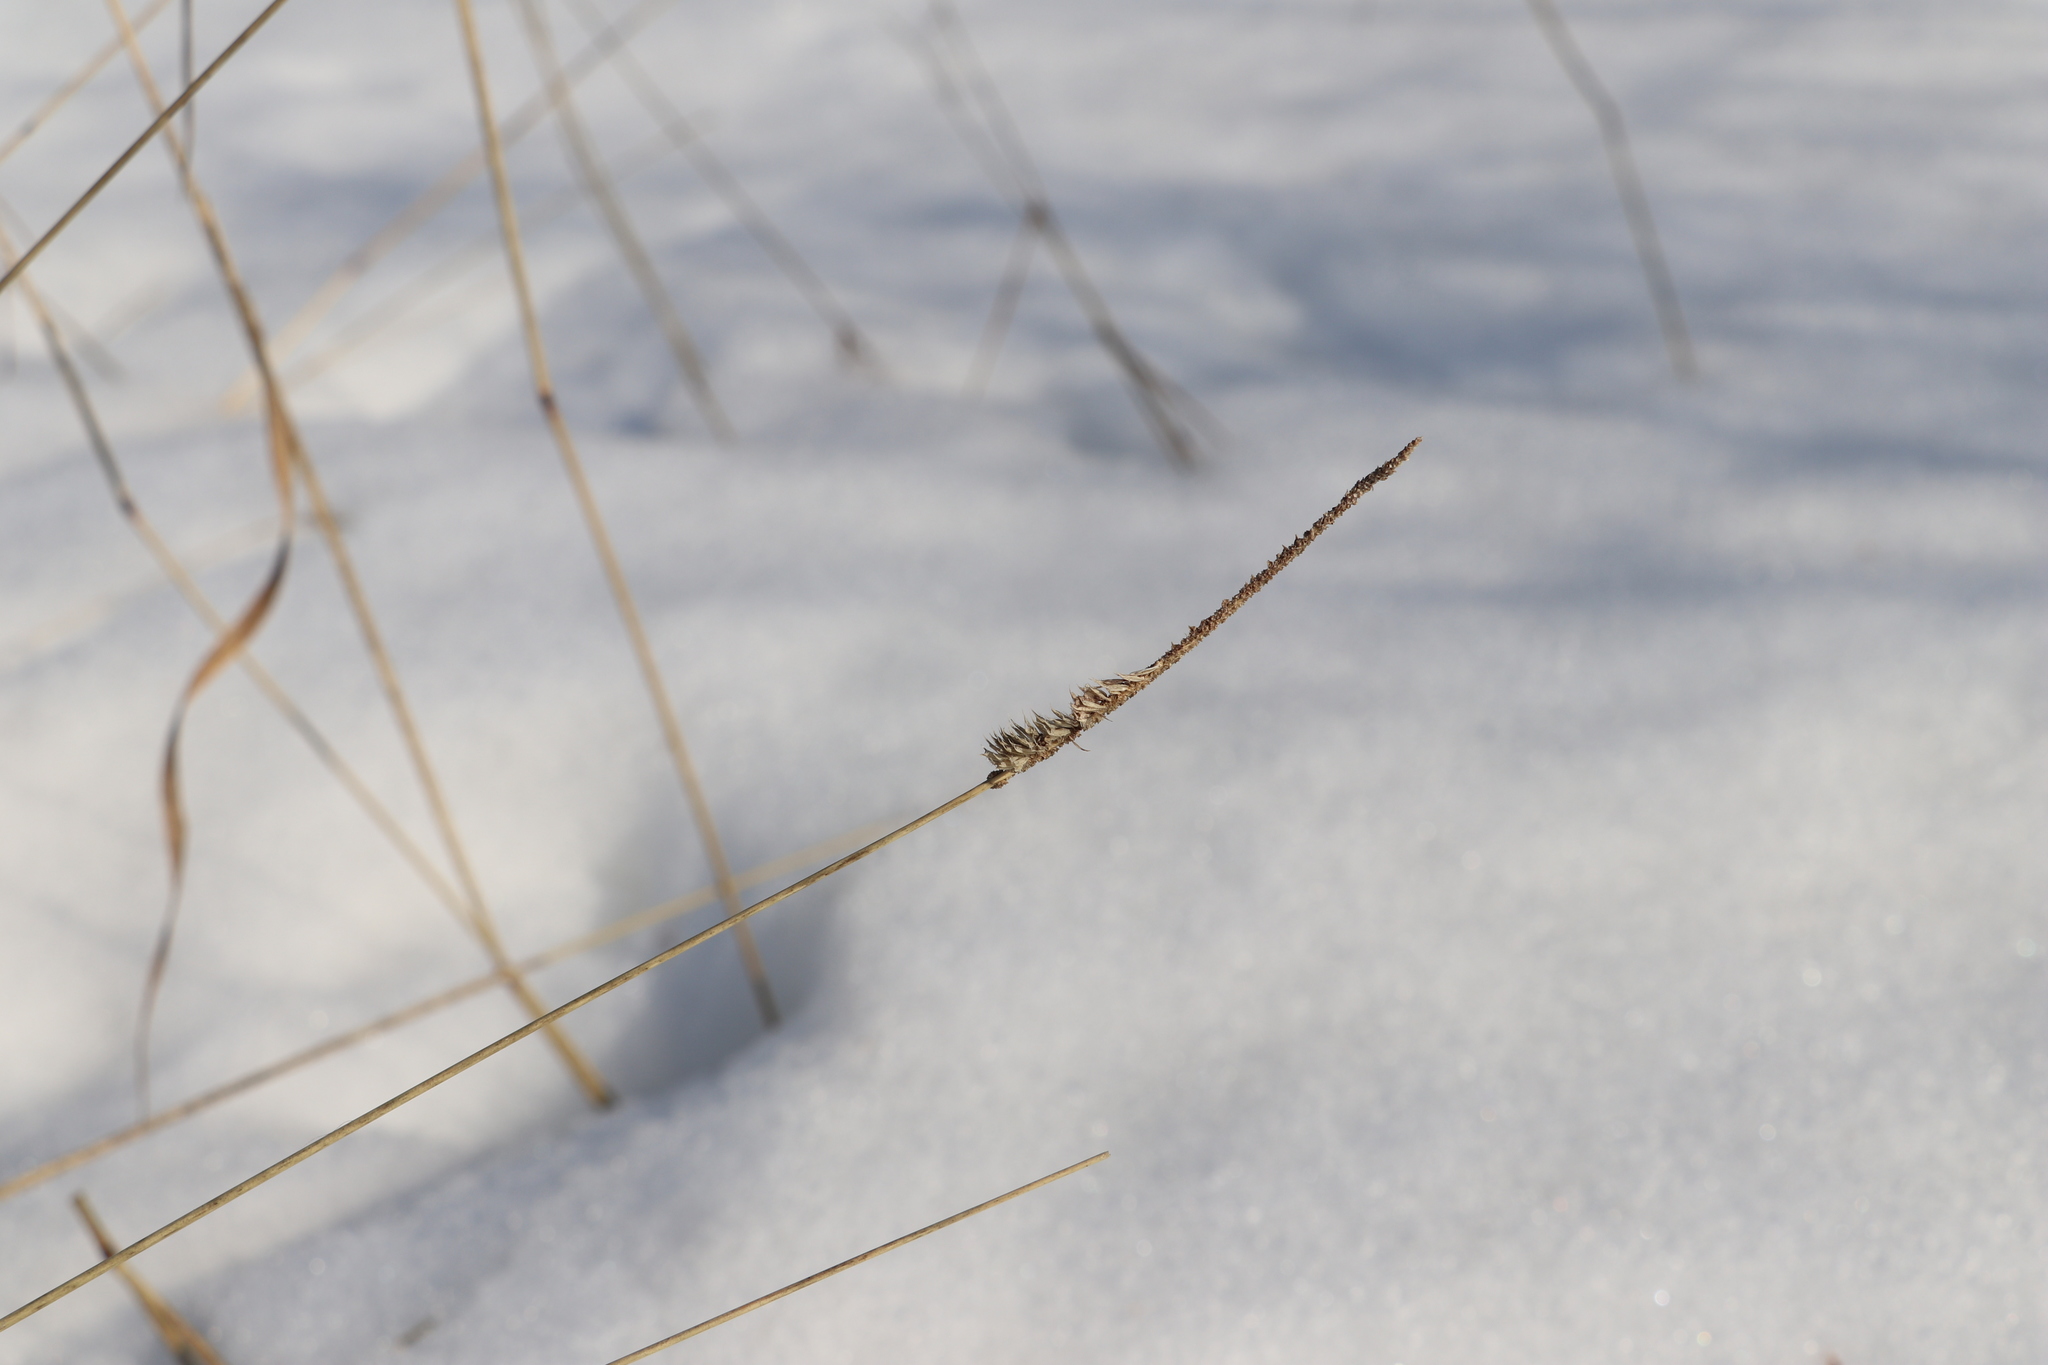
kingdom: Plantae
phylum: Tracheophyta
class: Liliopsida
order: Poales
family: Poaceae
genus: Phleum
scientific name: Phleum pratense
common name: Timothy grass
